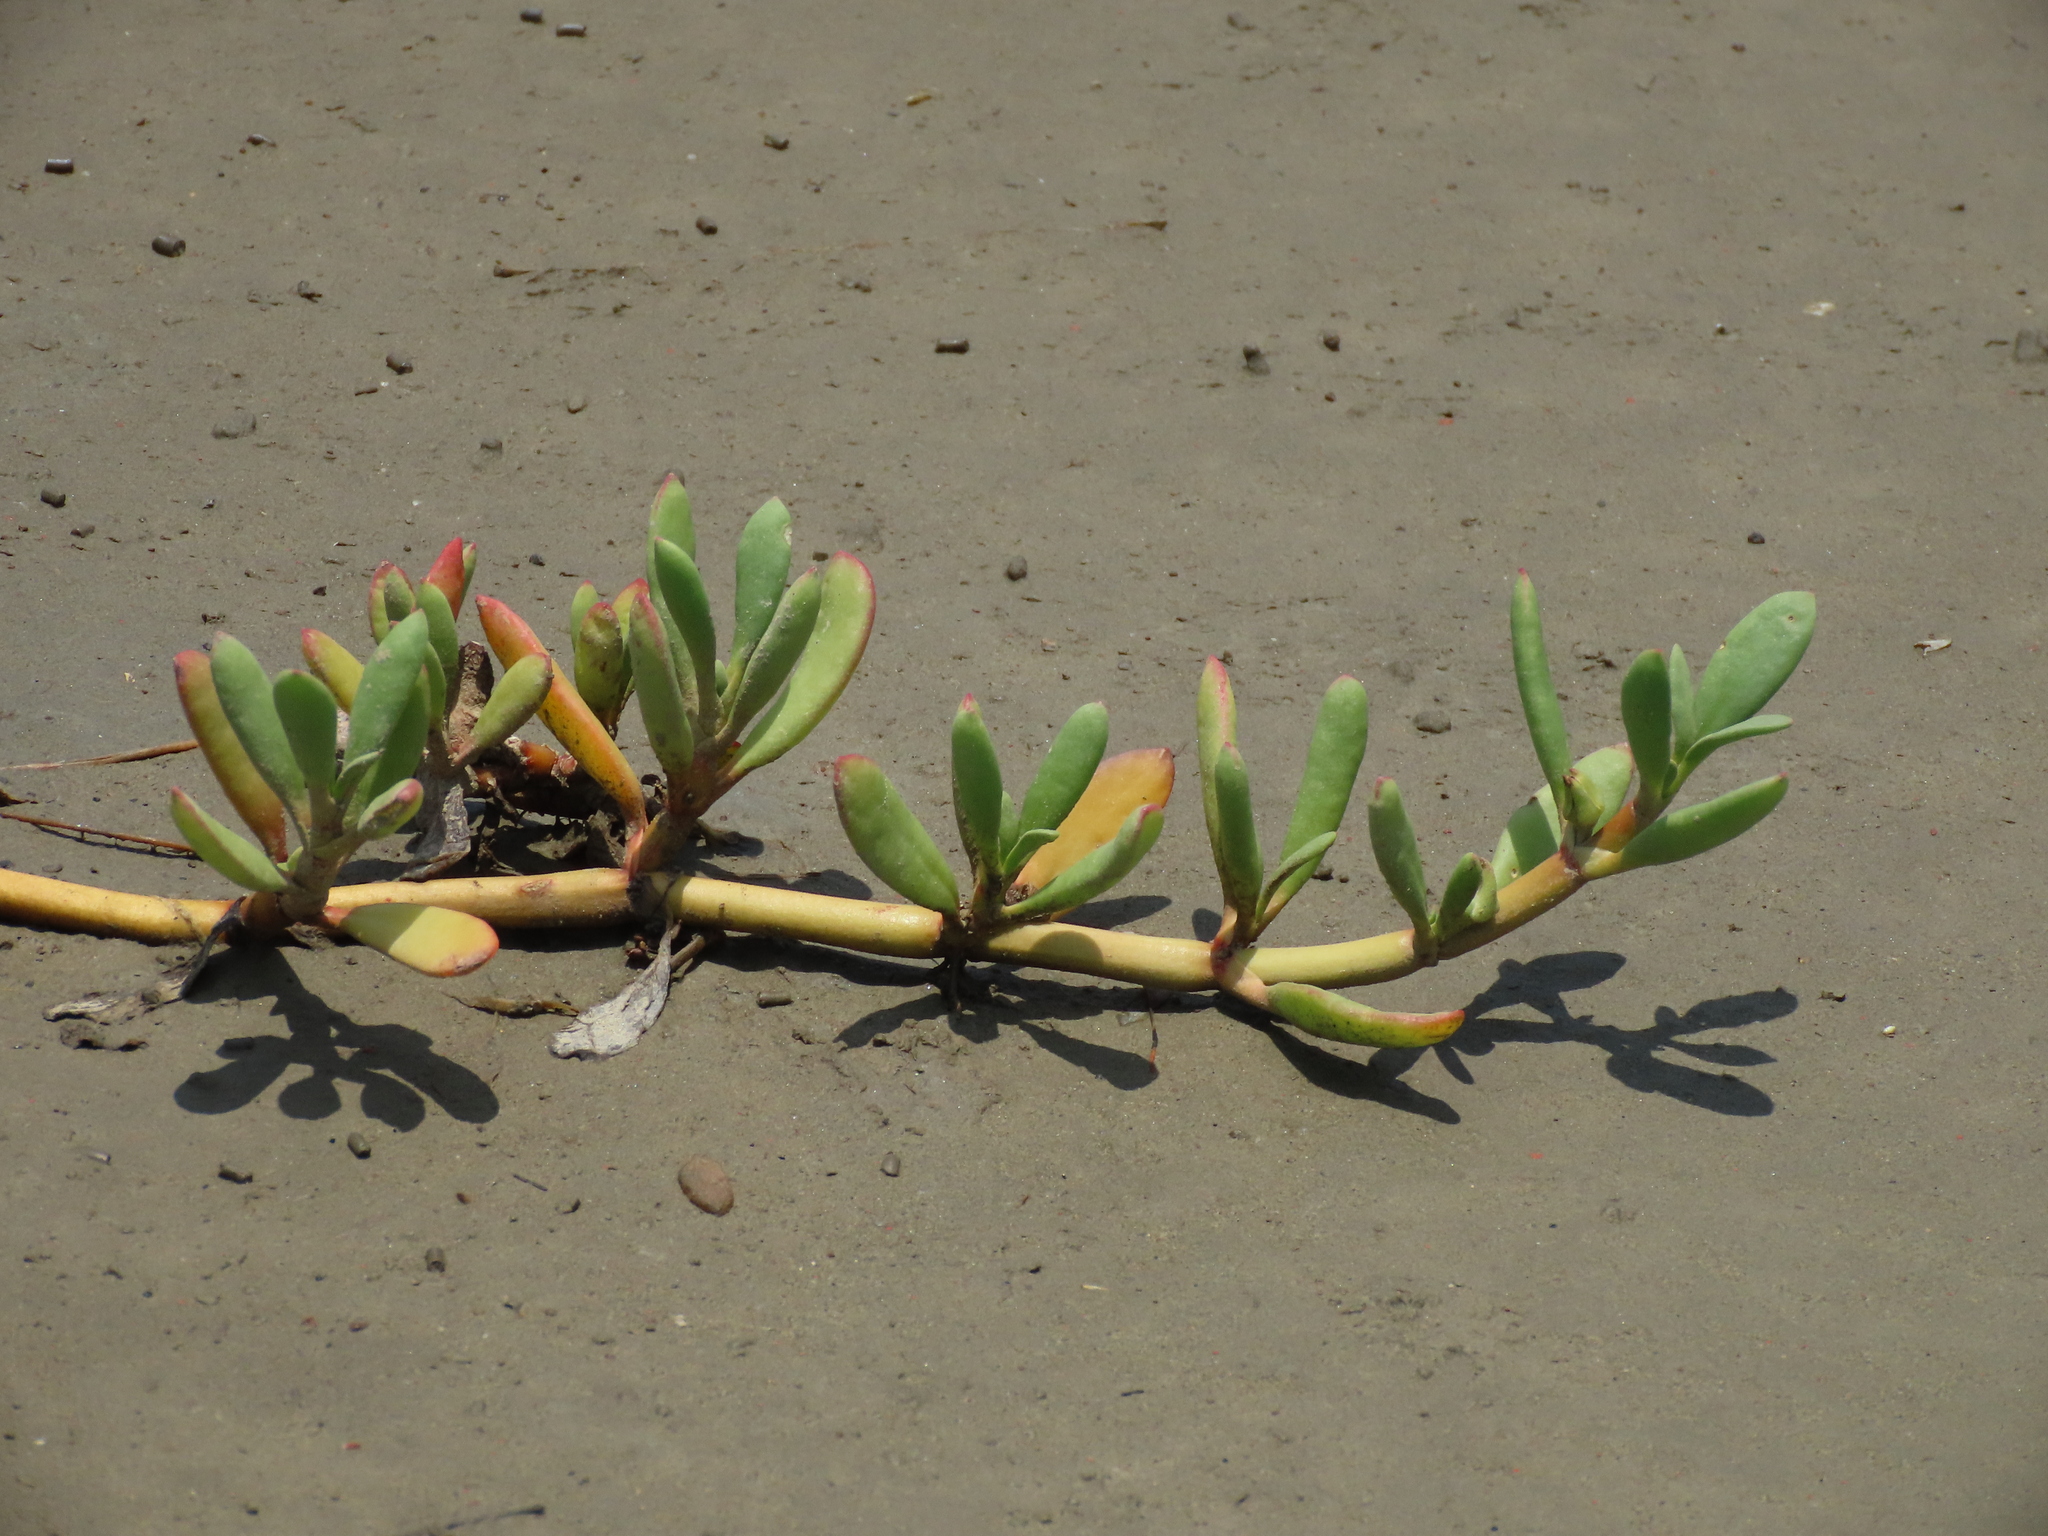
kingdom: Plantae
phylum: Tracheophyta
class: Magnoliopsida
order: Caryophyllales
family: Aizoaceae
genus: Sesuvium
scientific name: Sesuvium portulacastrum
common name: Sea-purslane
